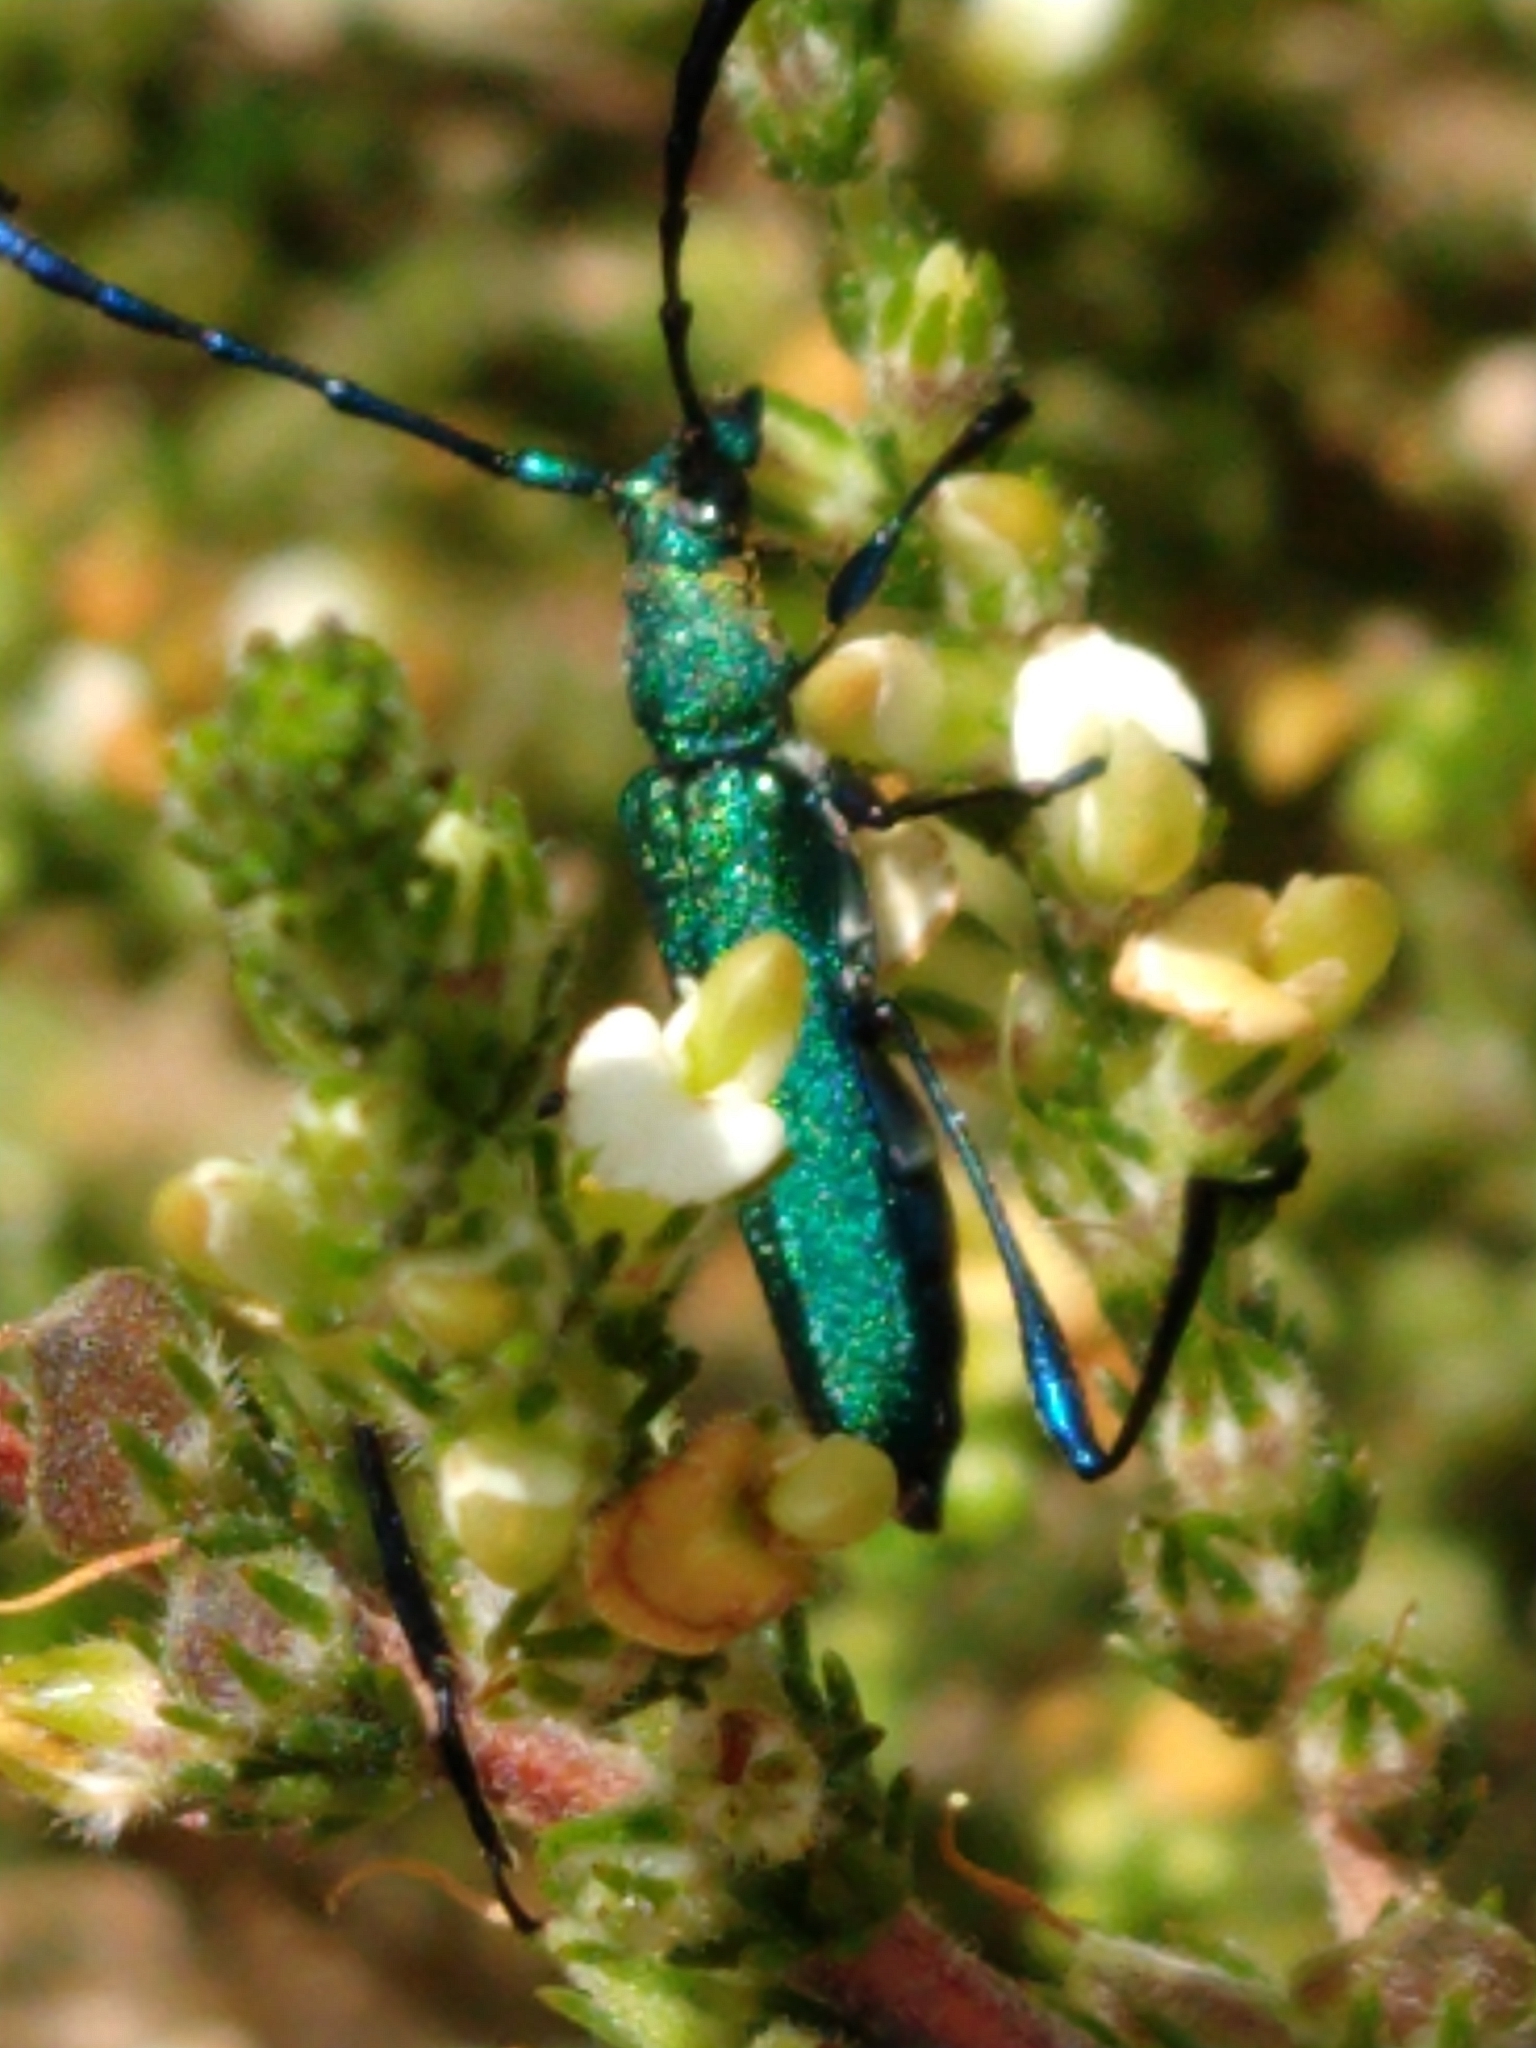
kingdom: Animalia
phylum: Arthropoda
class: Insecta
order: Coleoptera
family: Cerambycidae
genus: Hypocrites
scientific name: Hypocrites
